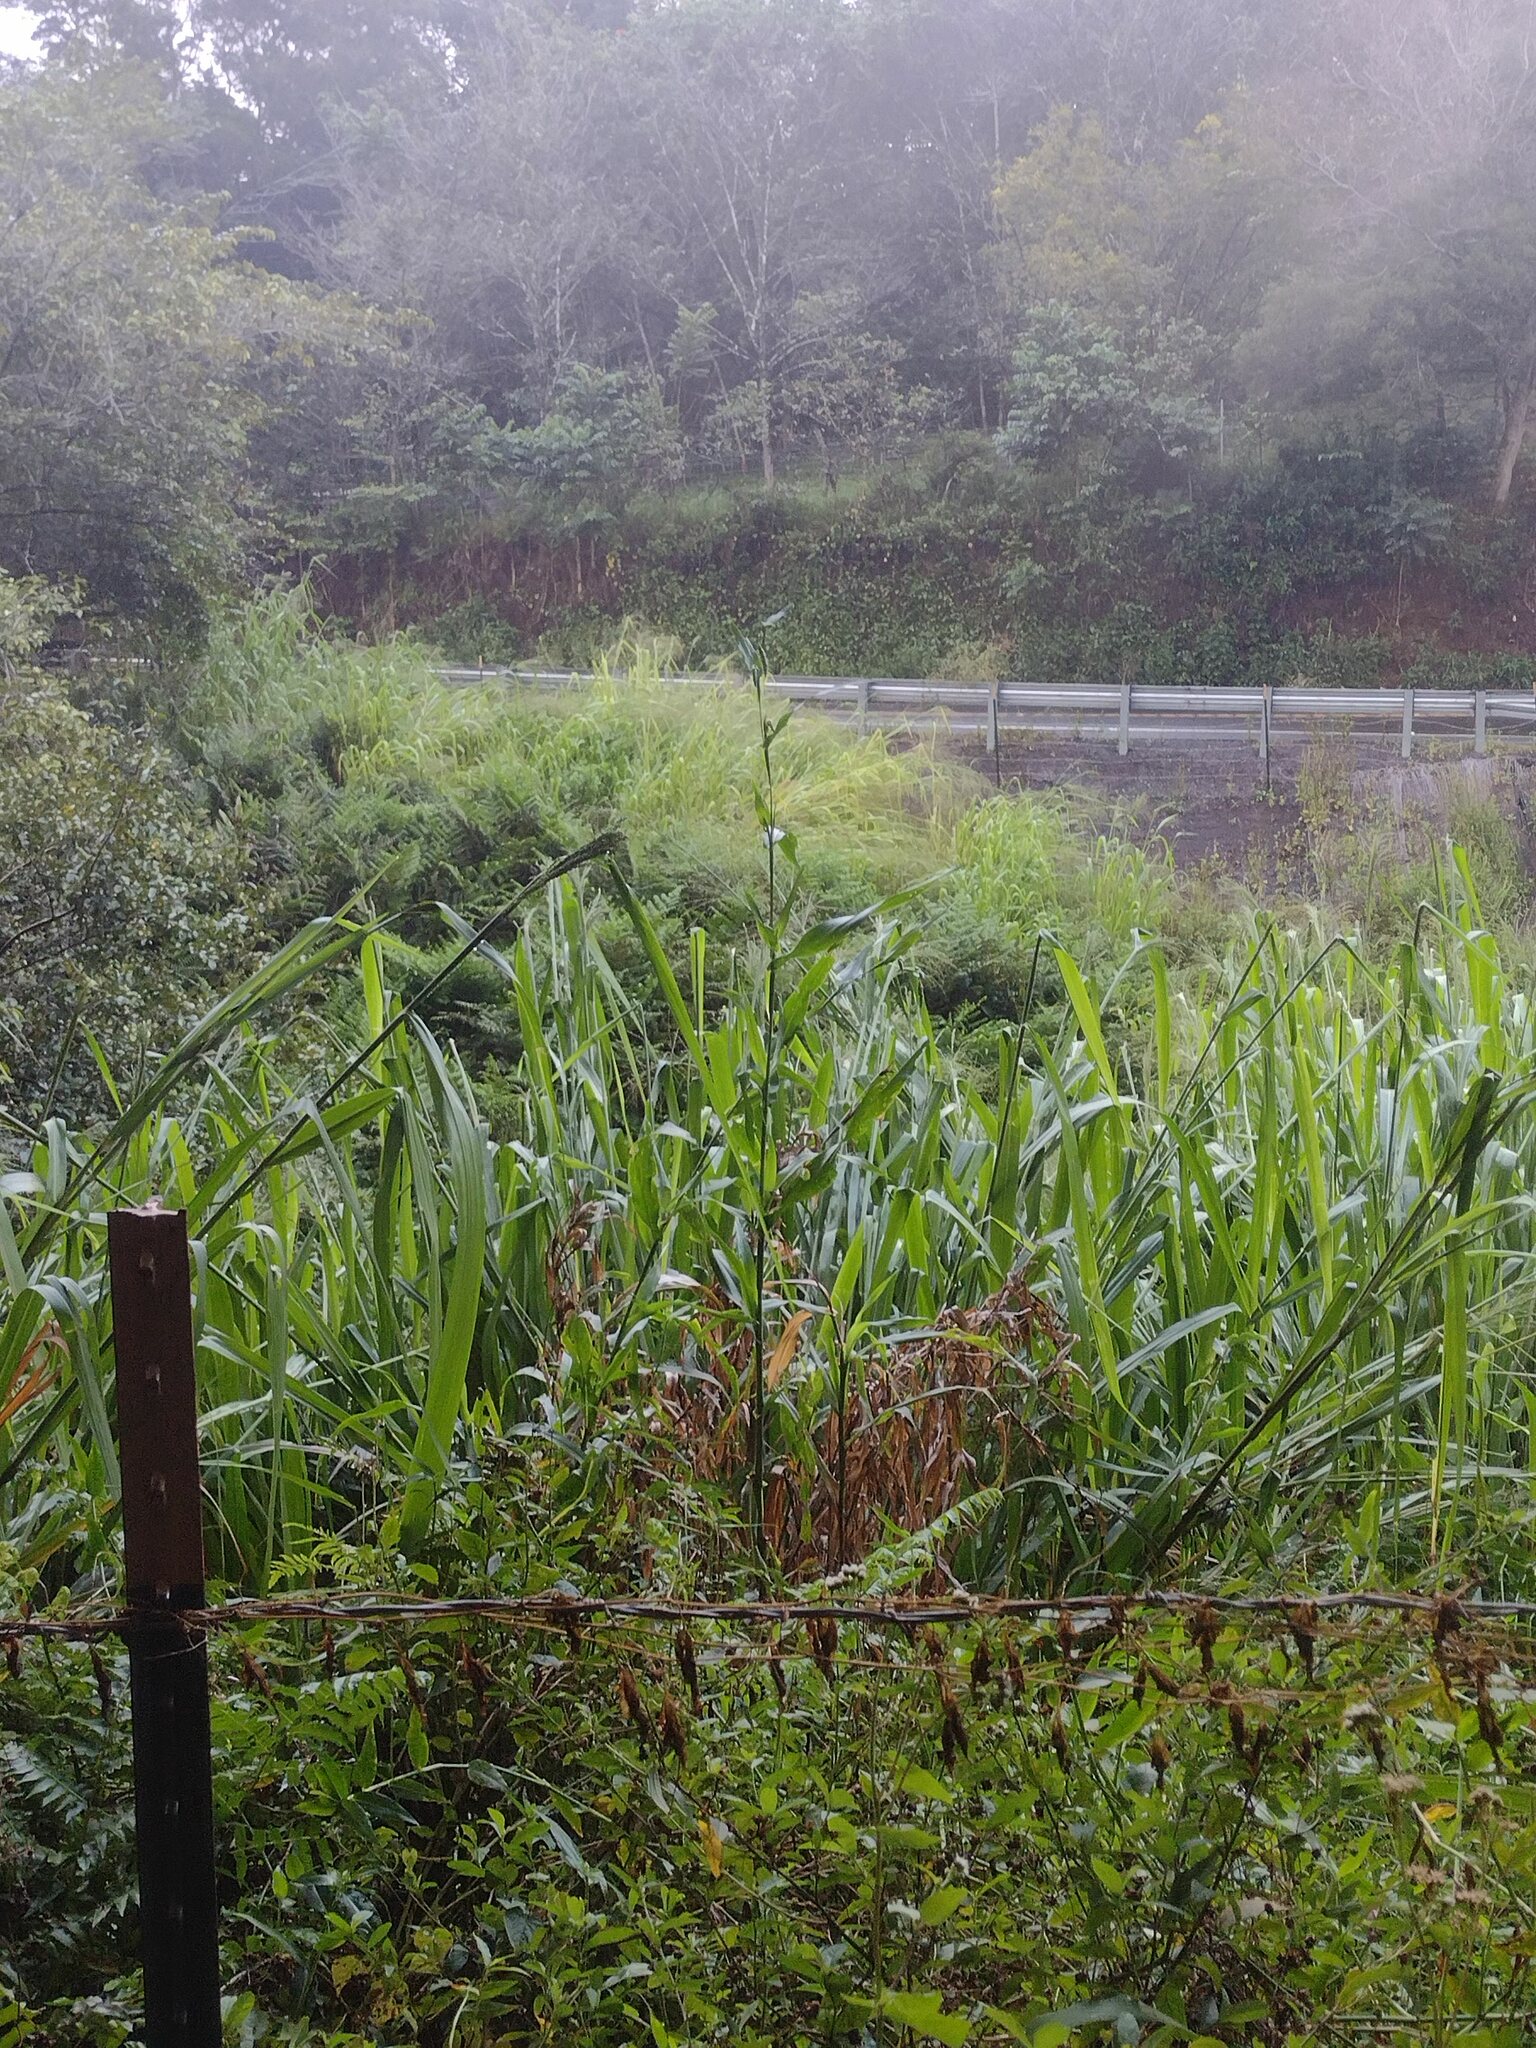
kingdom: Plantae
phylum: Tracheophyta
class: Liliopsida
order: Poales
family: Poaceae
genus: Coix
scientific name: Coix lacryma-jobi
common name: Job's tears
